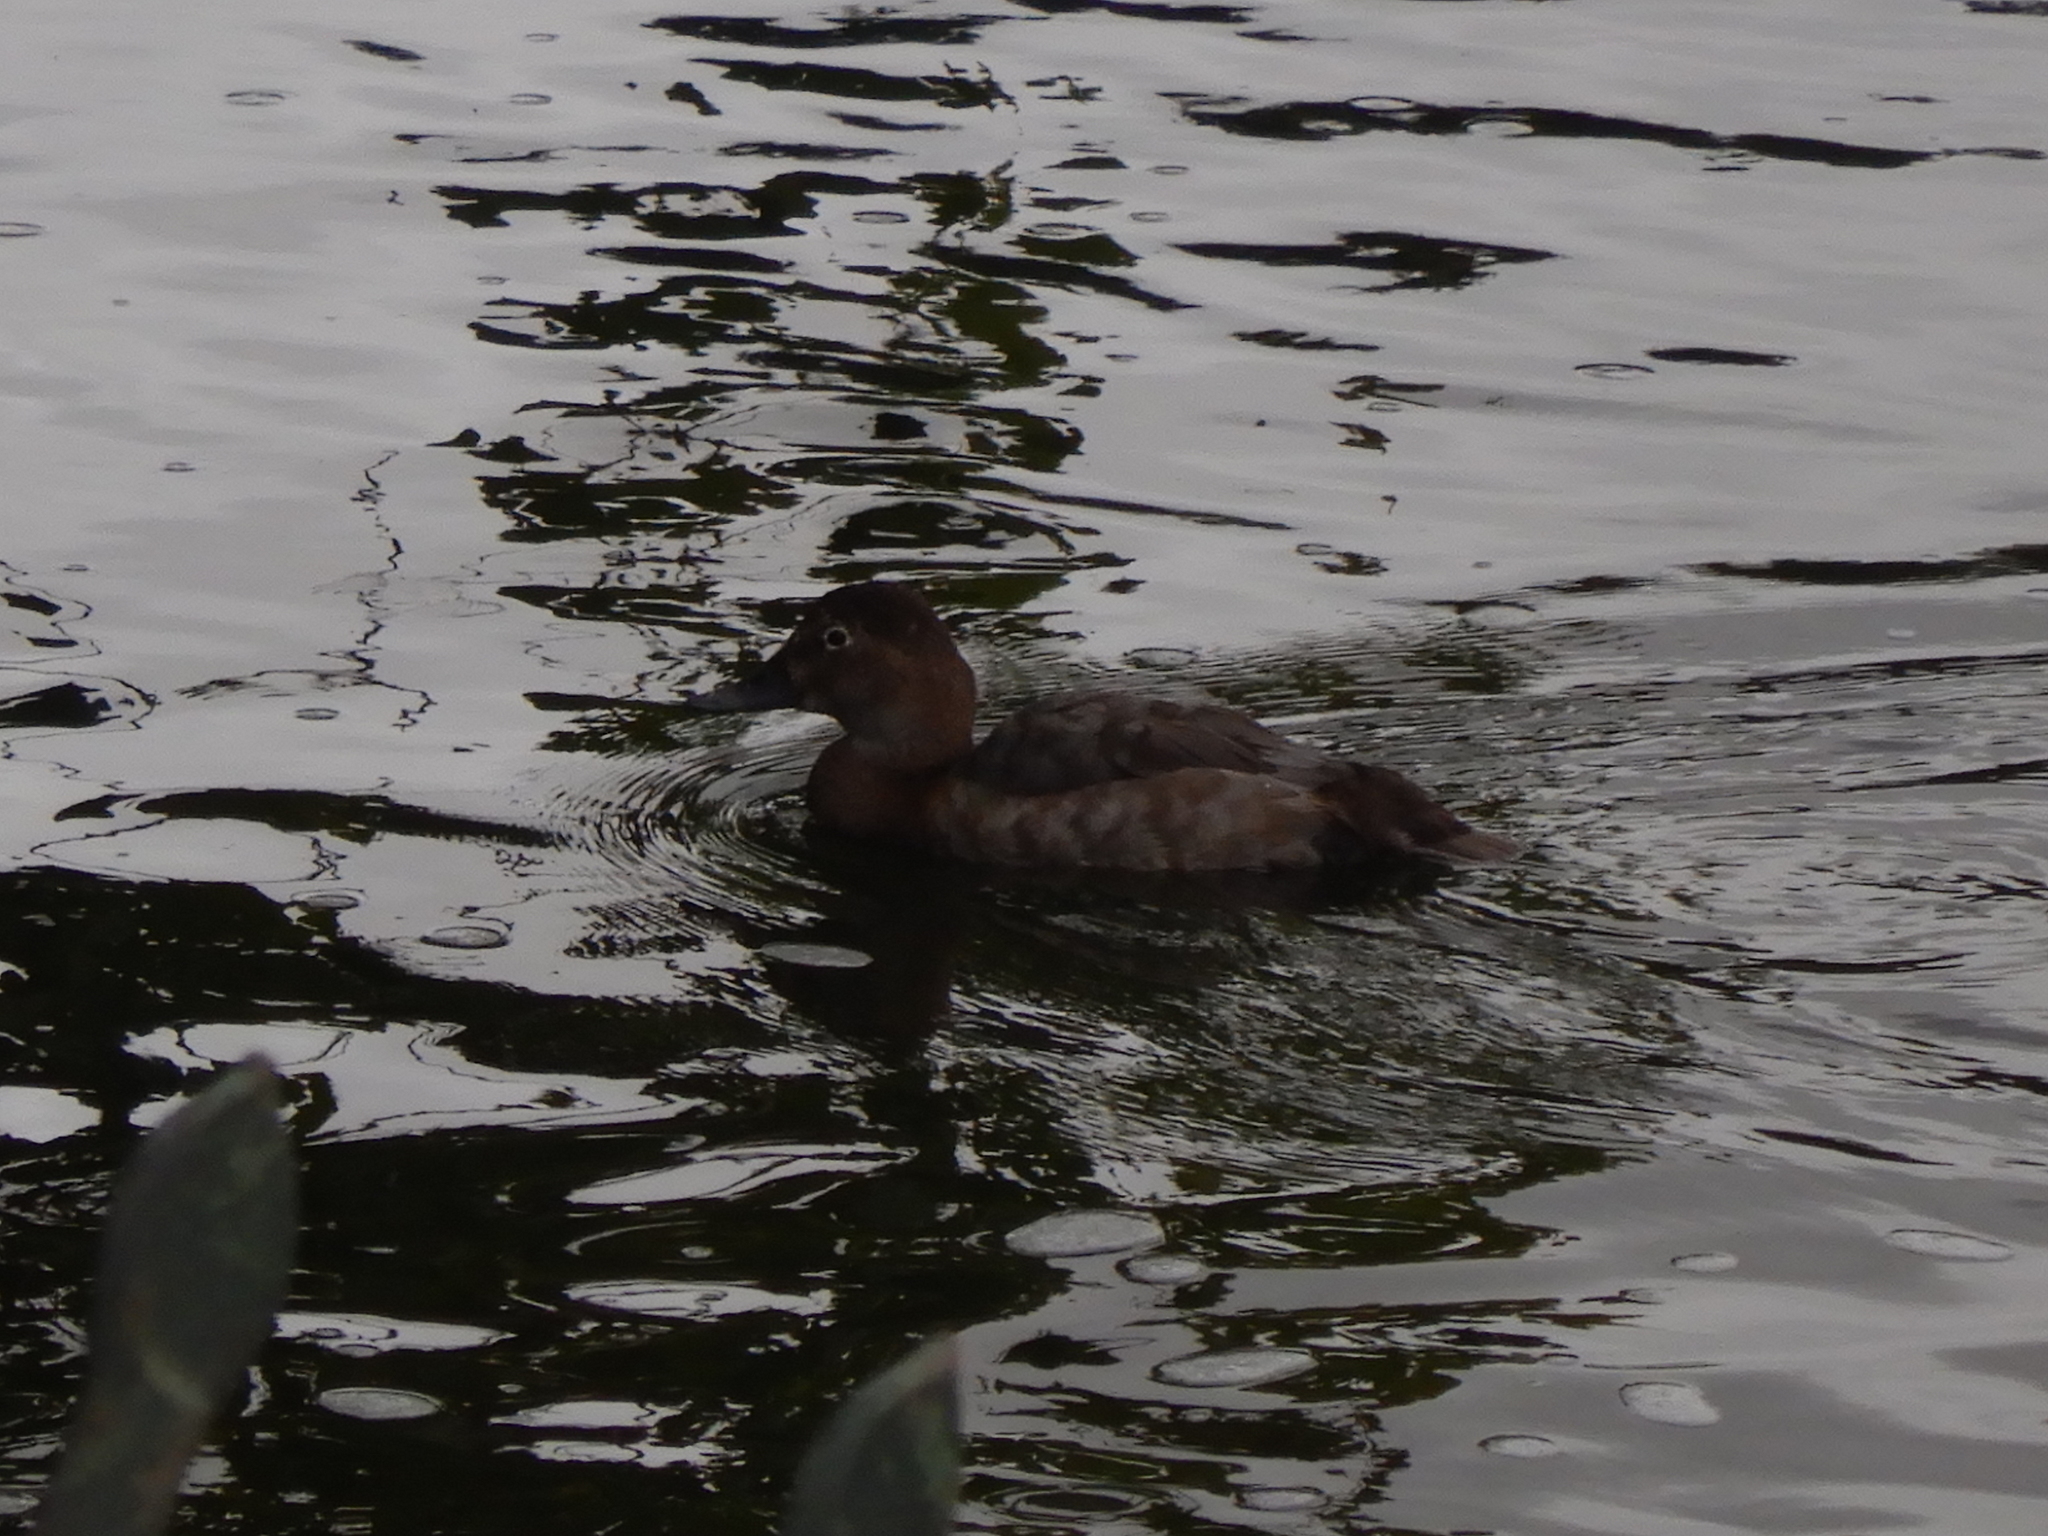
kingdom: Animalia
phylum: Chordata
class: Aves
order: Anseriformes
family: Anatidae
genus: Aythya
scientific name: Aythya ferina
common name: Common pochard
